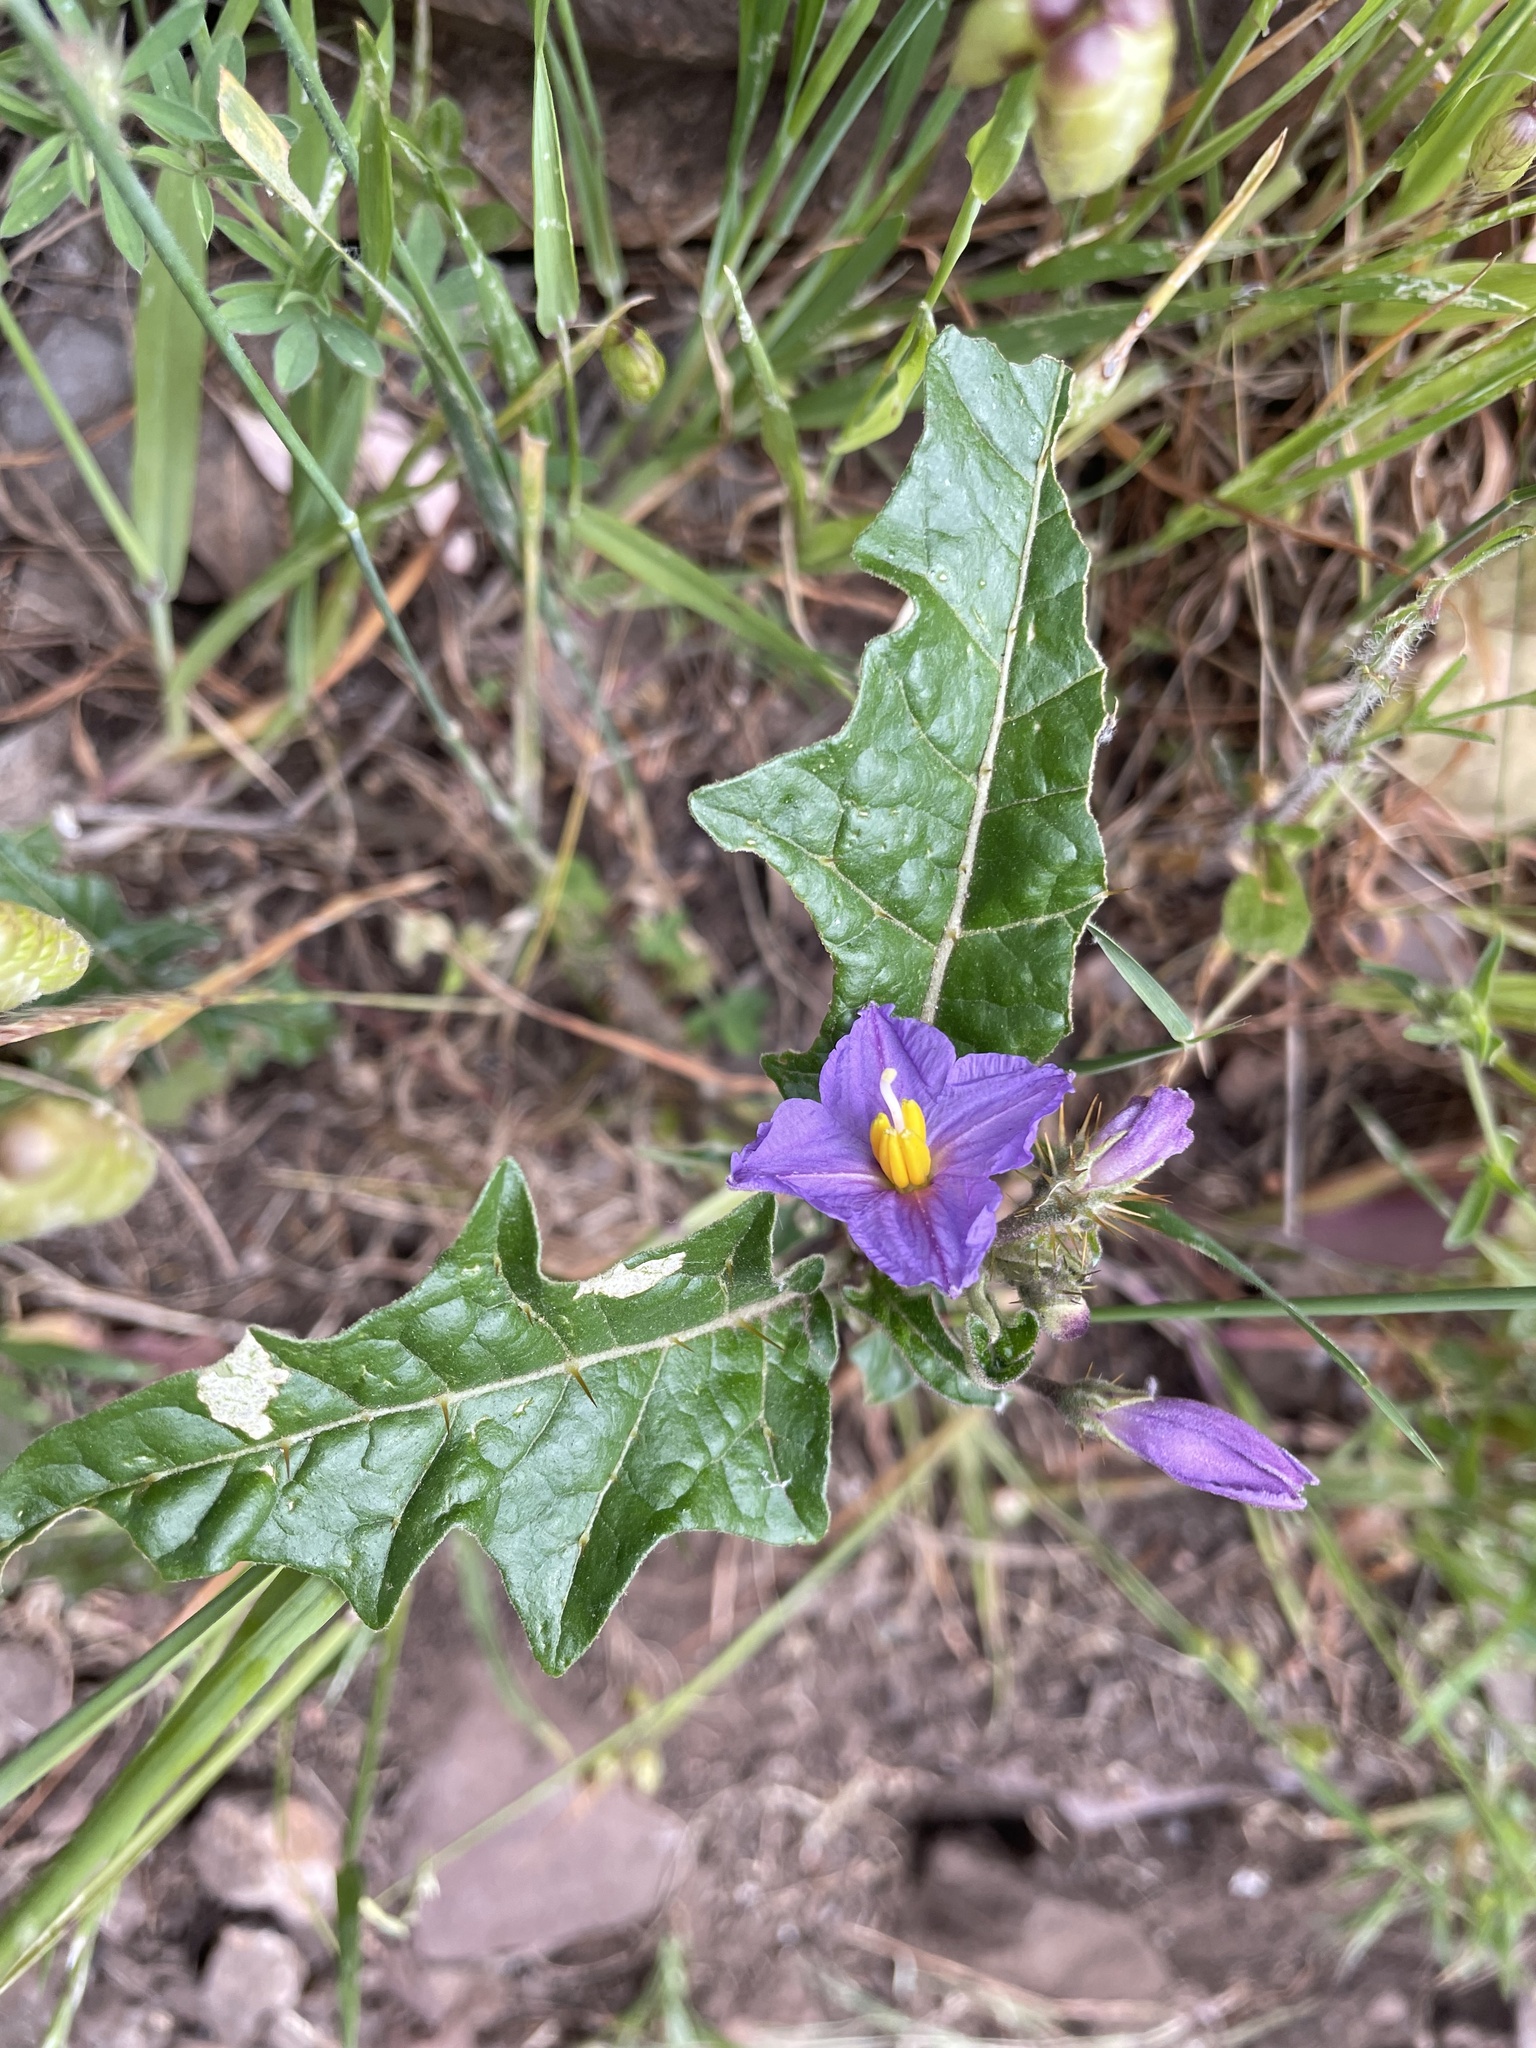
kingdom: Plantae
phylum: Tracheophyta
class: Magnoliopsida
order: Solanales
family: Solanaceae
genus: Solanum
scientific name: Solanum cinereum
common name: Narrawa-bur
